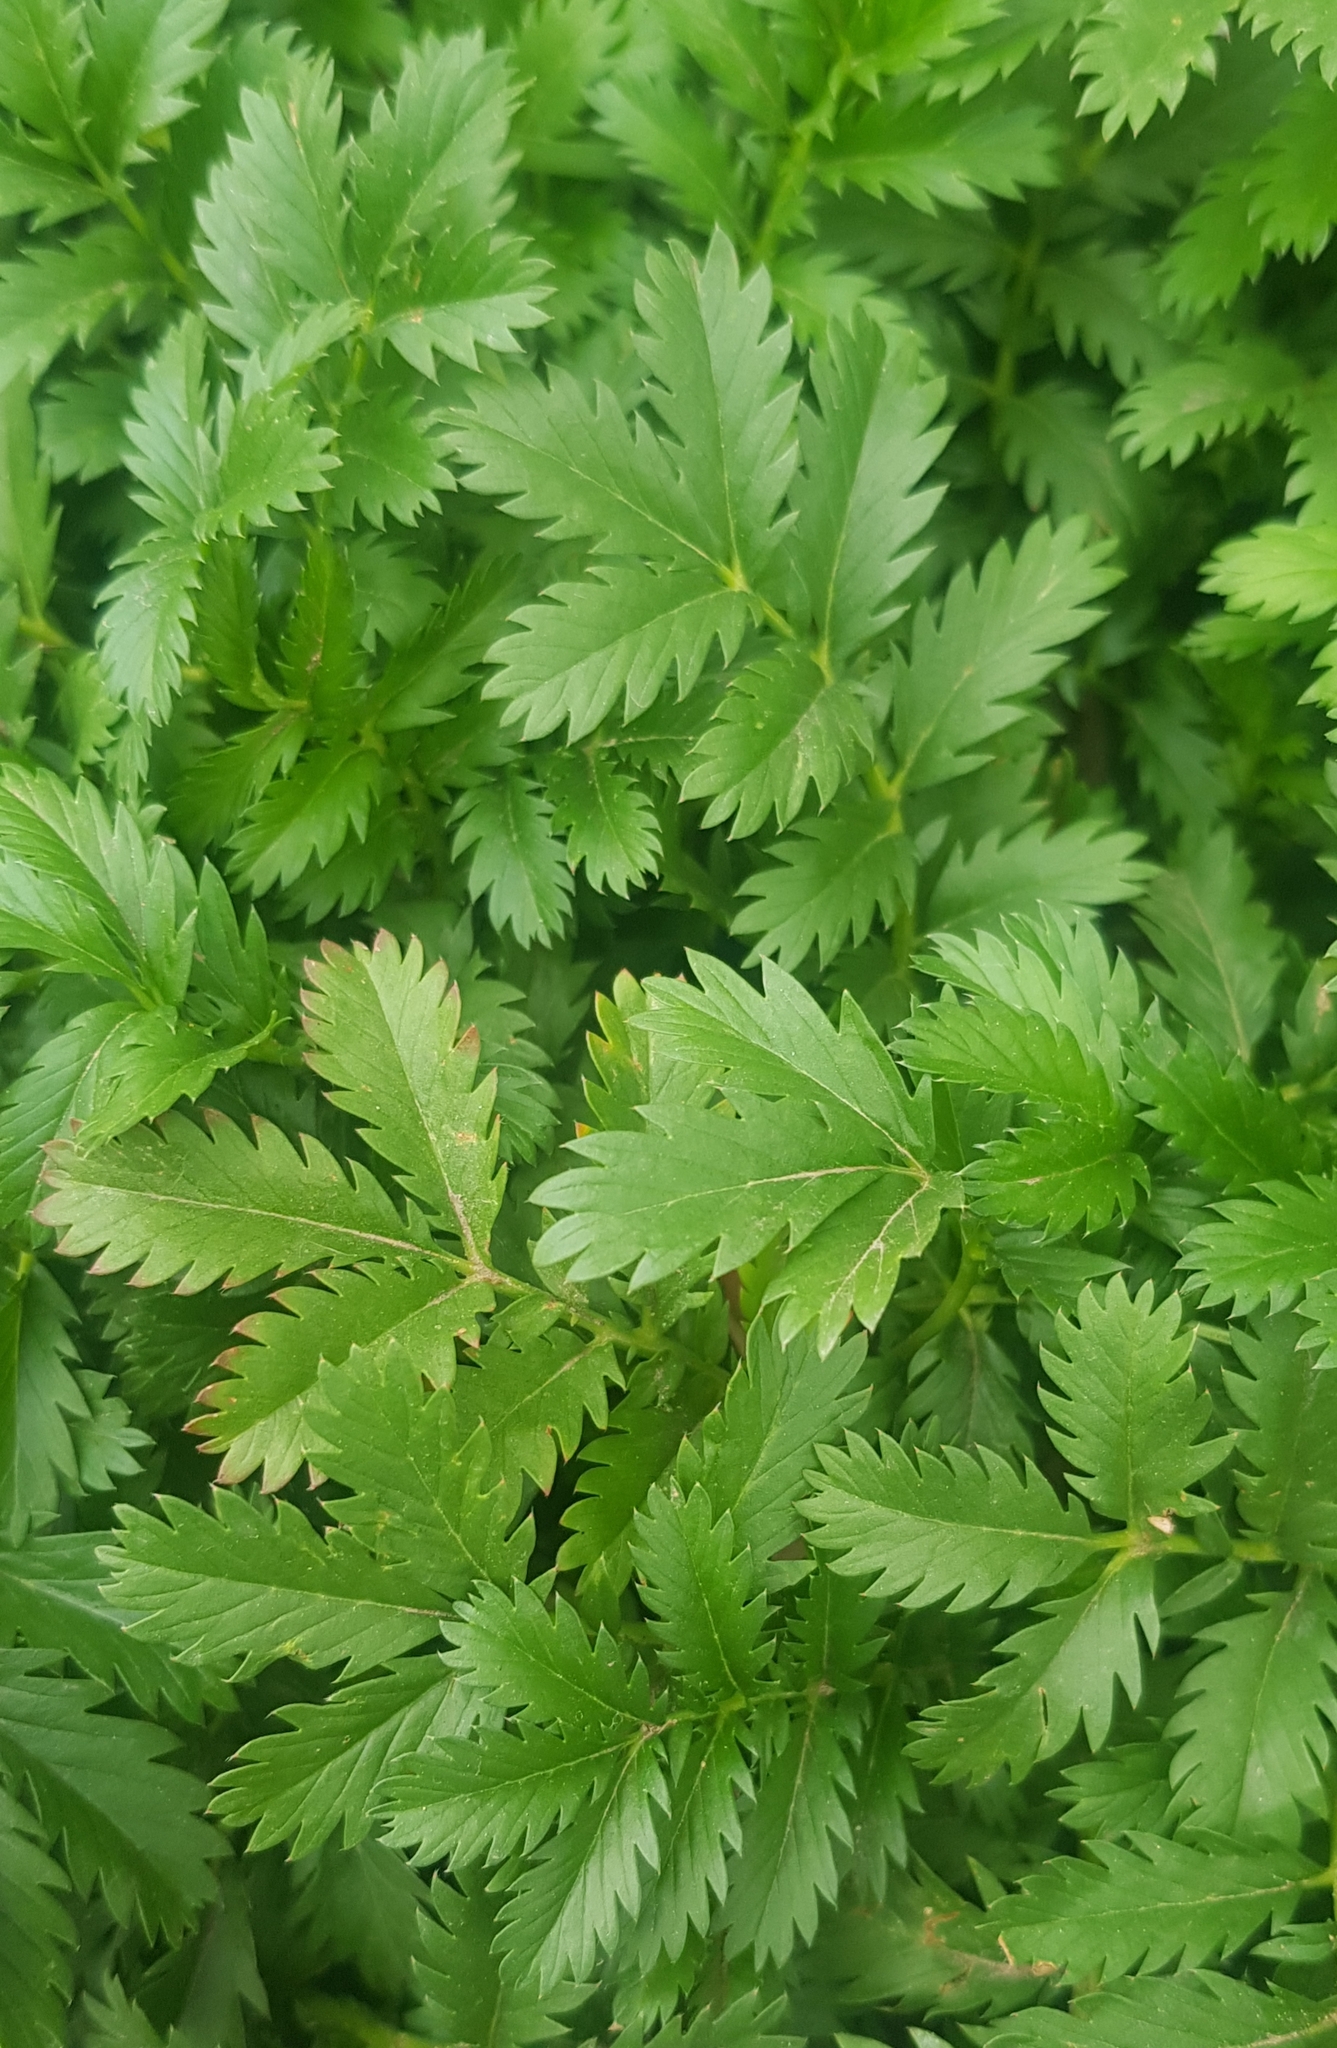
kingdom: Plantae
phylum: Tracheophyta
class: Magnoliopsida
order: Rosales
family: Rosaceae
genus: Argentina
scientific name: Argentina anserina
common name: Common silverweed
